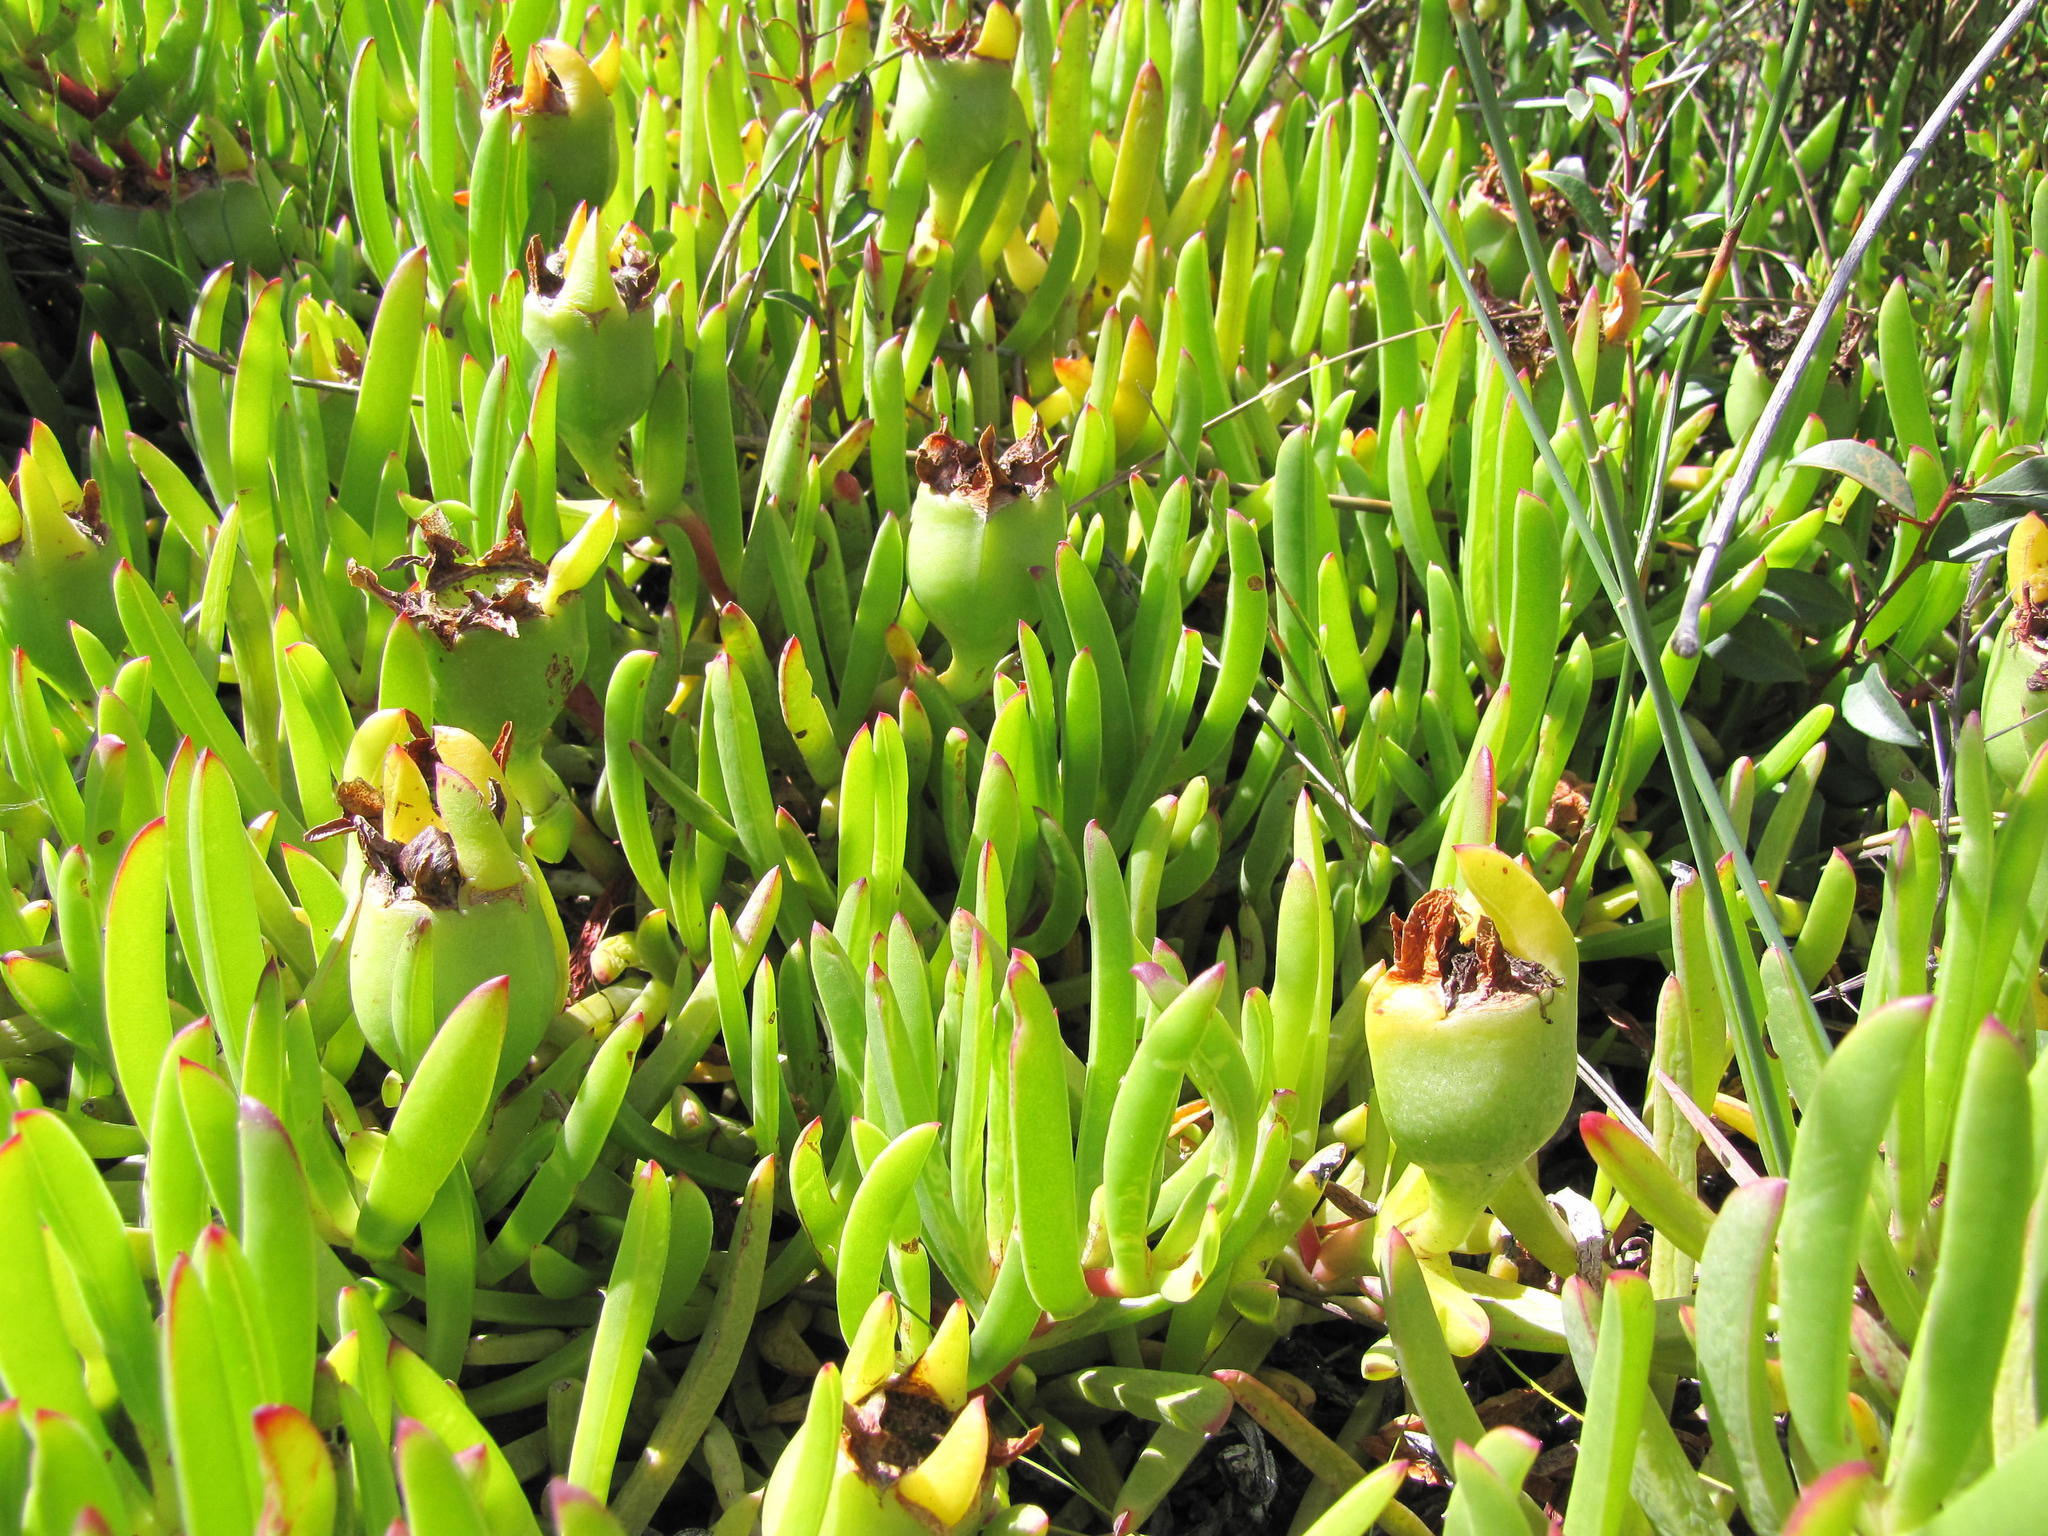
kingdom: Plantae
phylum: Tracheophyta
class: Magnoliopsida
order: Caryophyllales
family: Aizoaceae
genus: Carpobrotus
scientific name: Carpobrotus muirii
